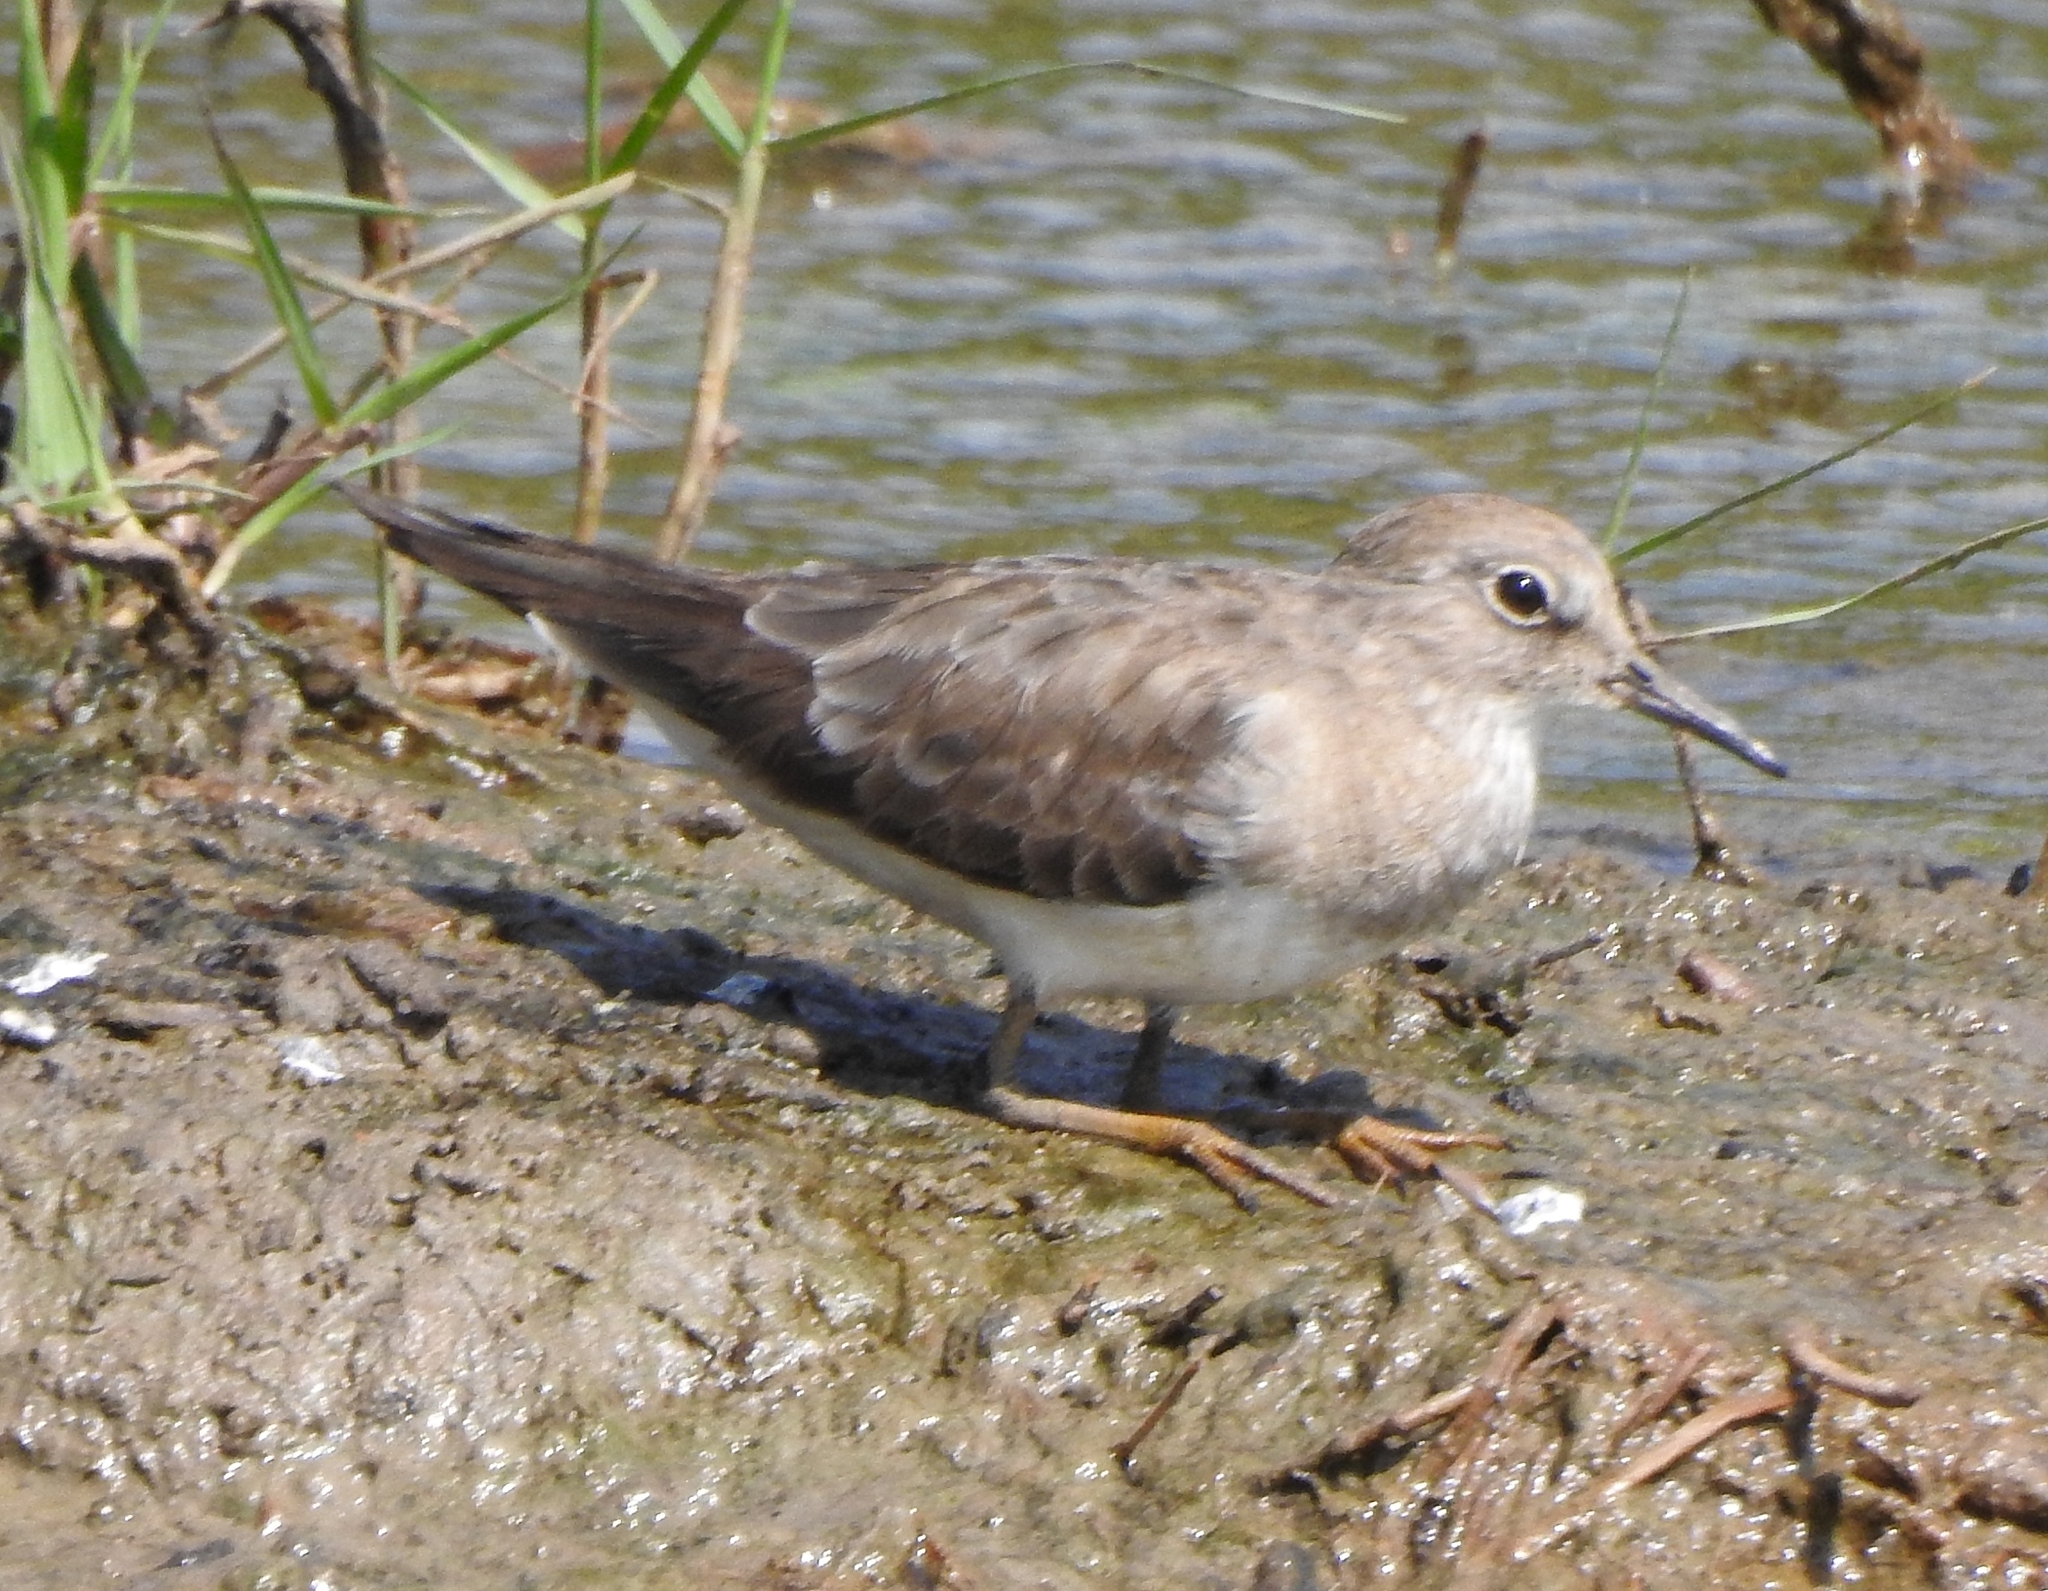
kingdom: Animalia
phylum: Chordata
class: Aves
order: Charadriiformes
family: Scolopacidae
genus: Calidris
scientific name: Calidris temminckii
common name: Temminck's stint
